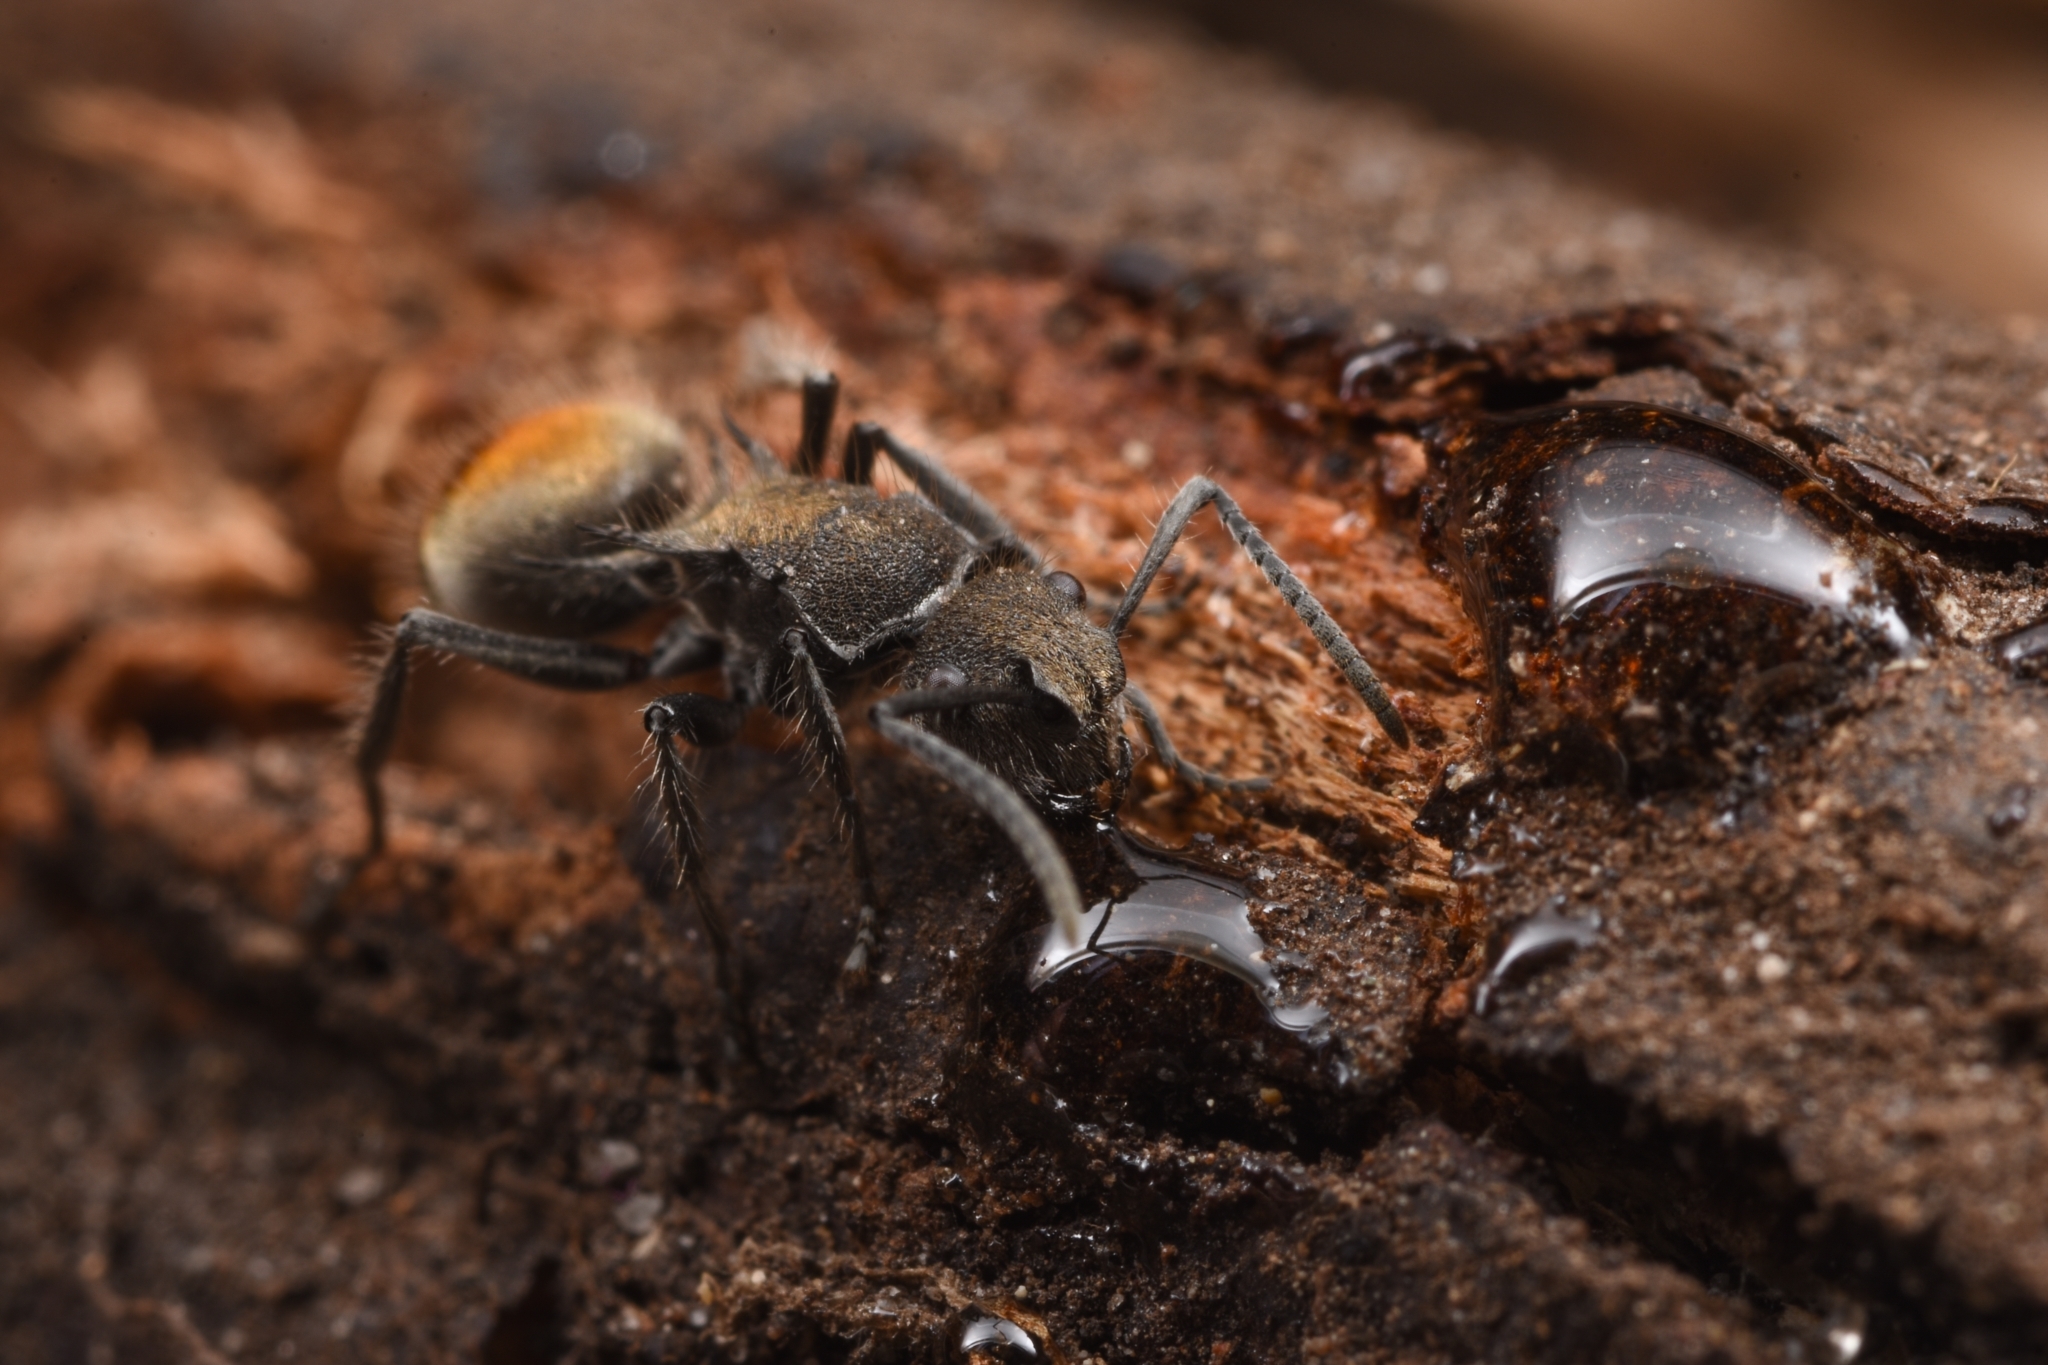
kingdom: Animalia
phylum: Arthropoda
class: Insecta
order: Hymenoptera
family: Formicidae
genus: Polyrhachis
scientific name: Polyrhachis vermiculosa
